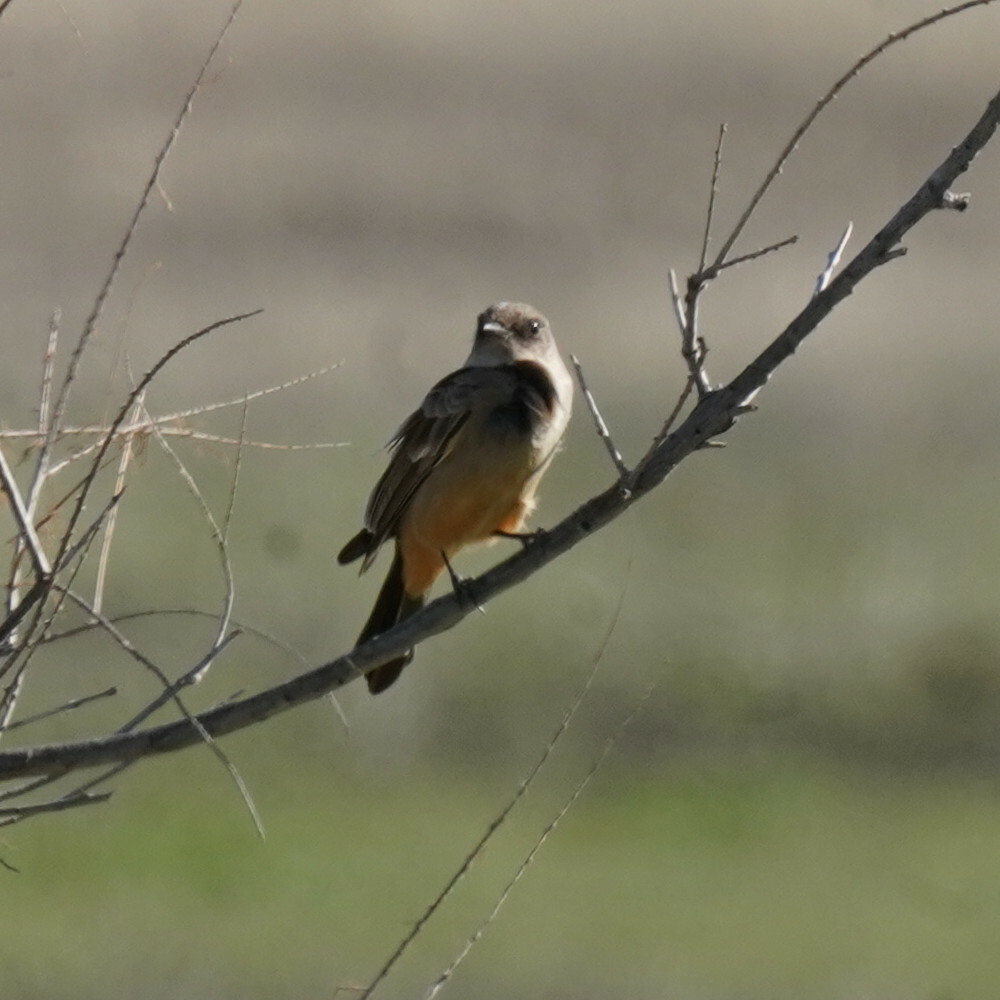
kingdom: Animalia
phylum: Chordata
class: Aves
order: Passeriformes
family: Tyrannidae
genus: Sayornis
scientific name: Sayornis saya
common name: Say's phoebe
